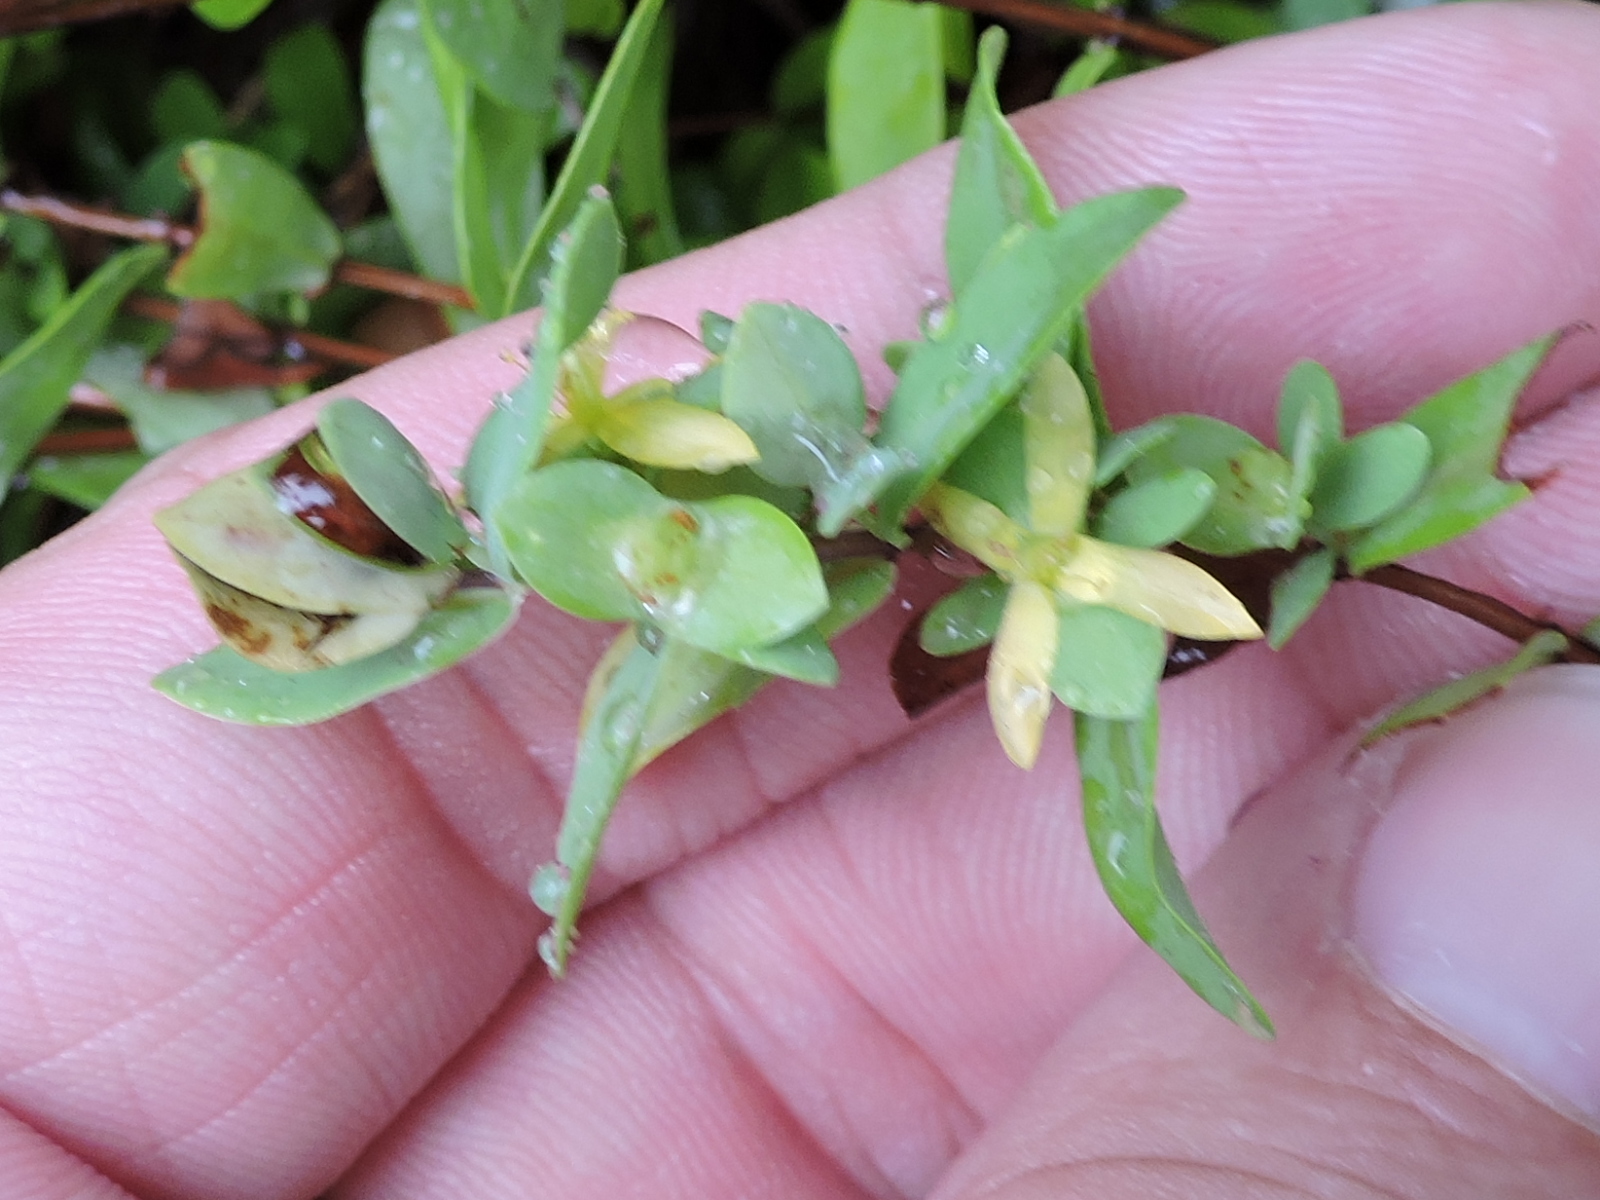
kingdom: Plantae
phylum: Tracheophyta
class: Magnoliopsida
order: Malpighiales
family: Hypericaceae
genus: Hypericum
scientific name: Hypericum hypericoides
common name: St. andrew's cross
